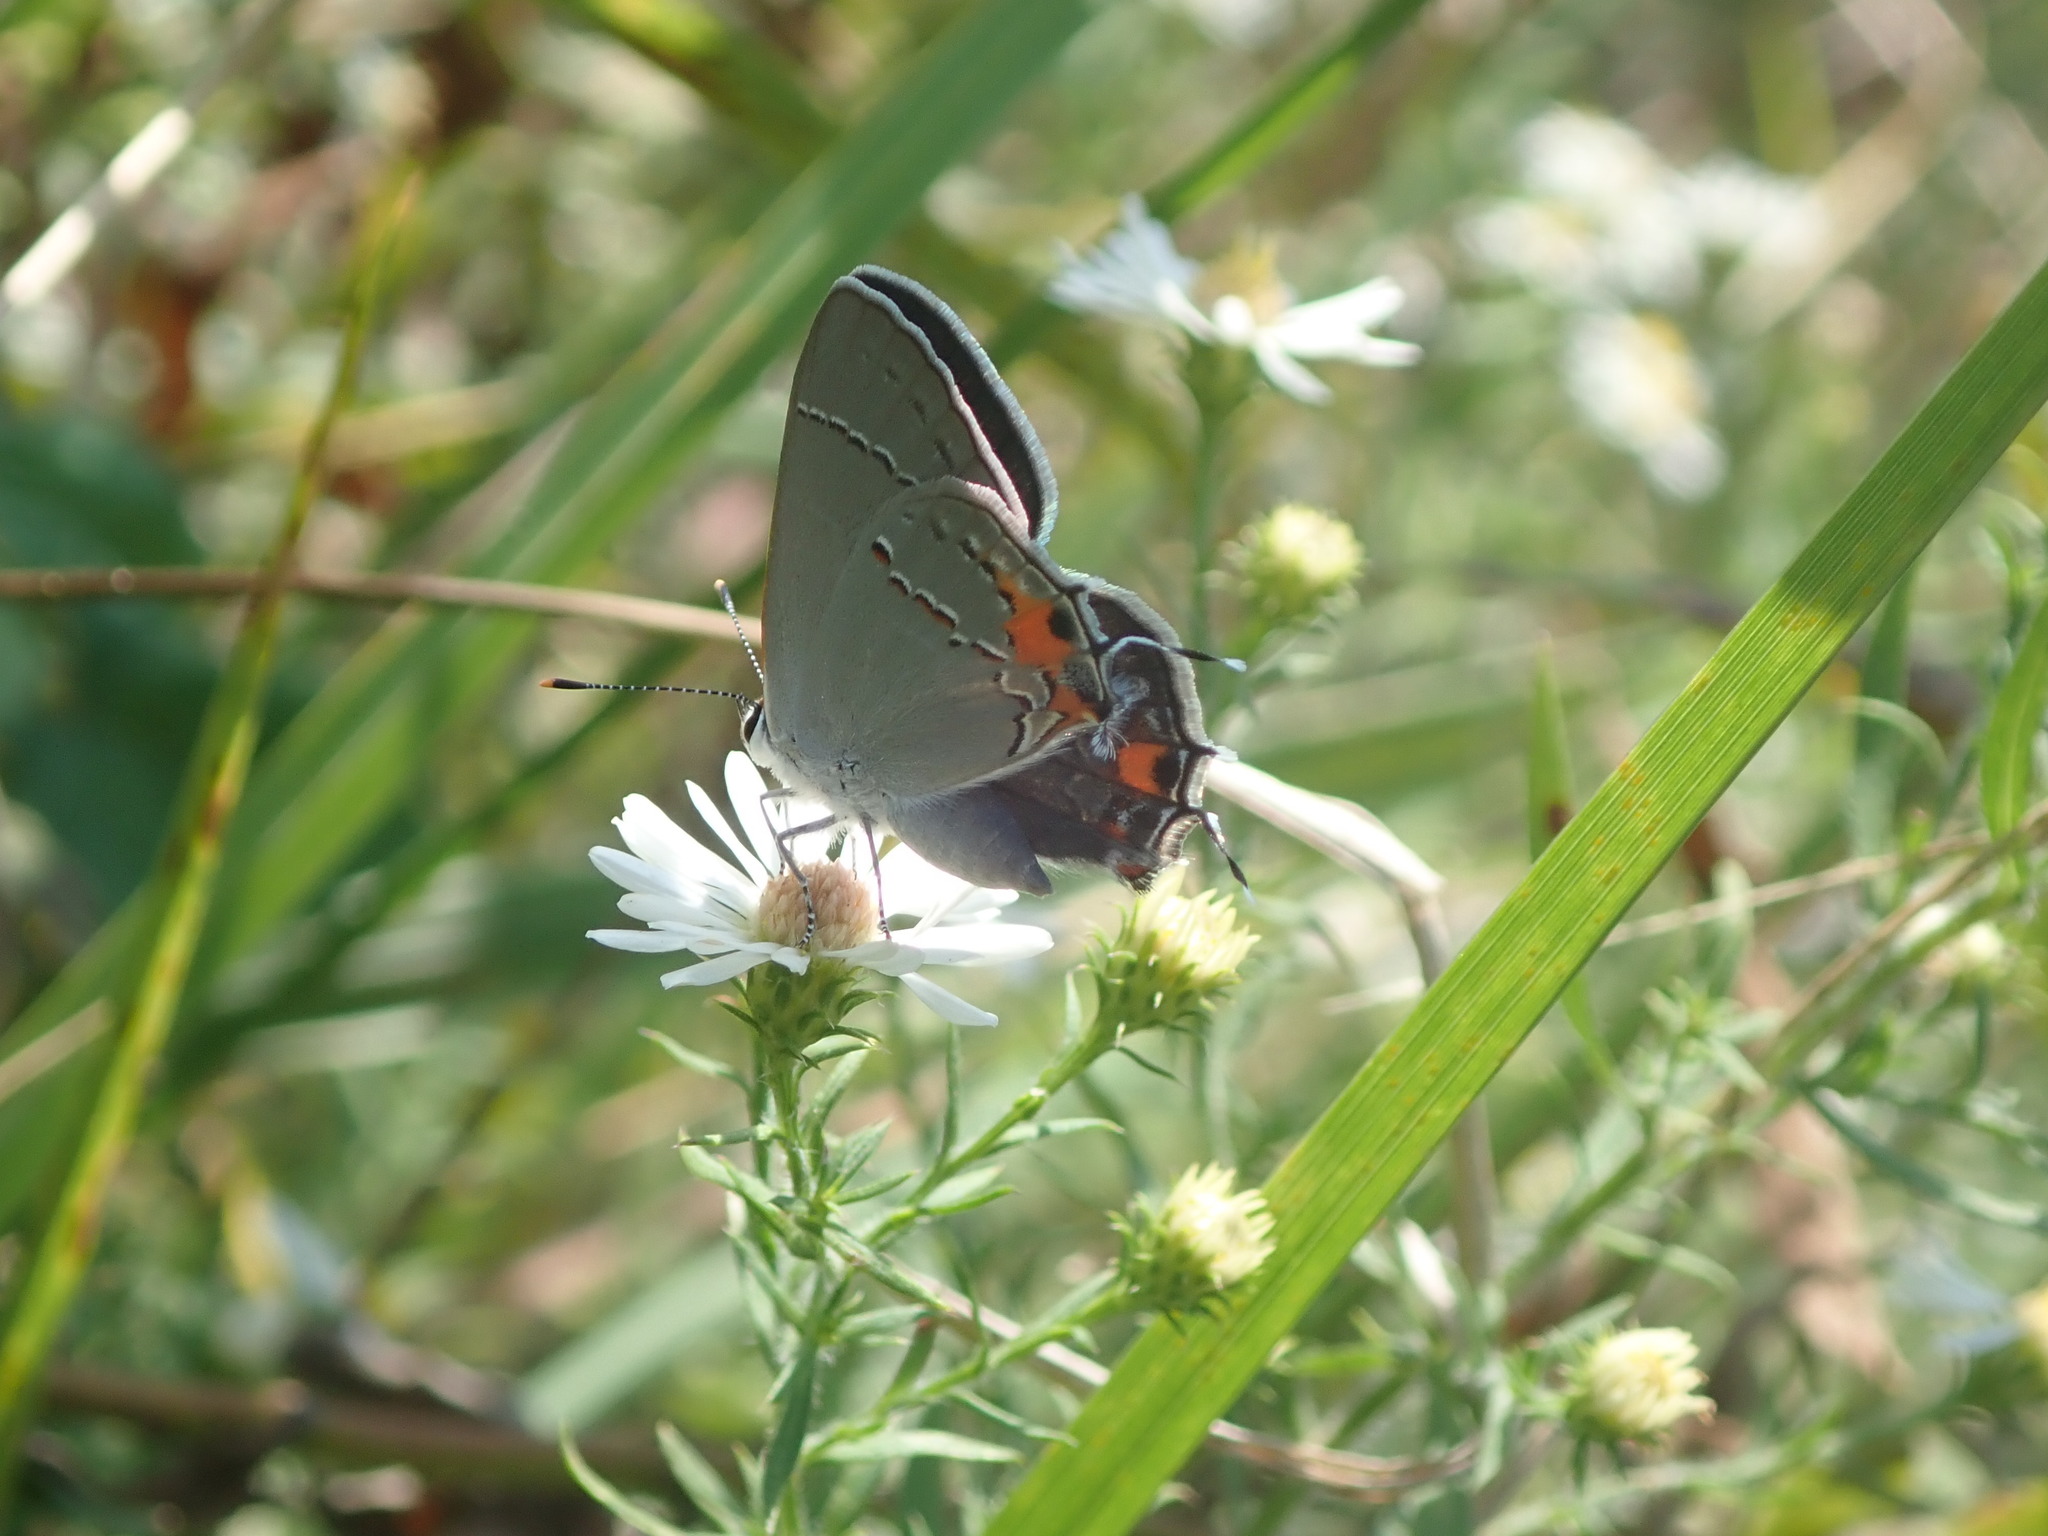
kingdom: Animalia
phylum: Arthropoda
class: Insecta
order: Lepidoptera
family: Lycaenidae
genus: Strymon
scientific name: Strymon melinus
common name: Gray hairstreak
